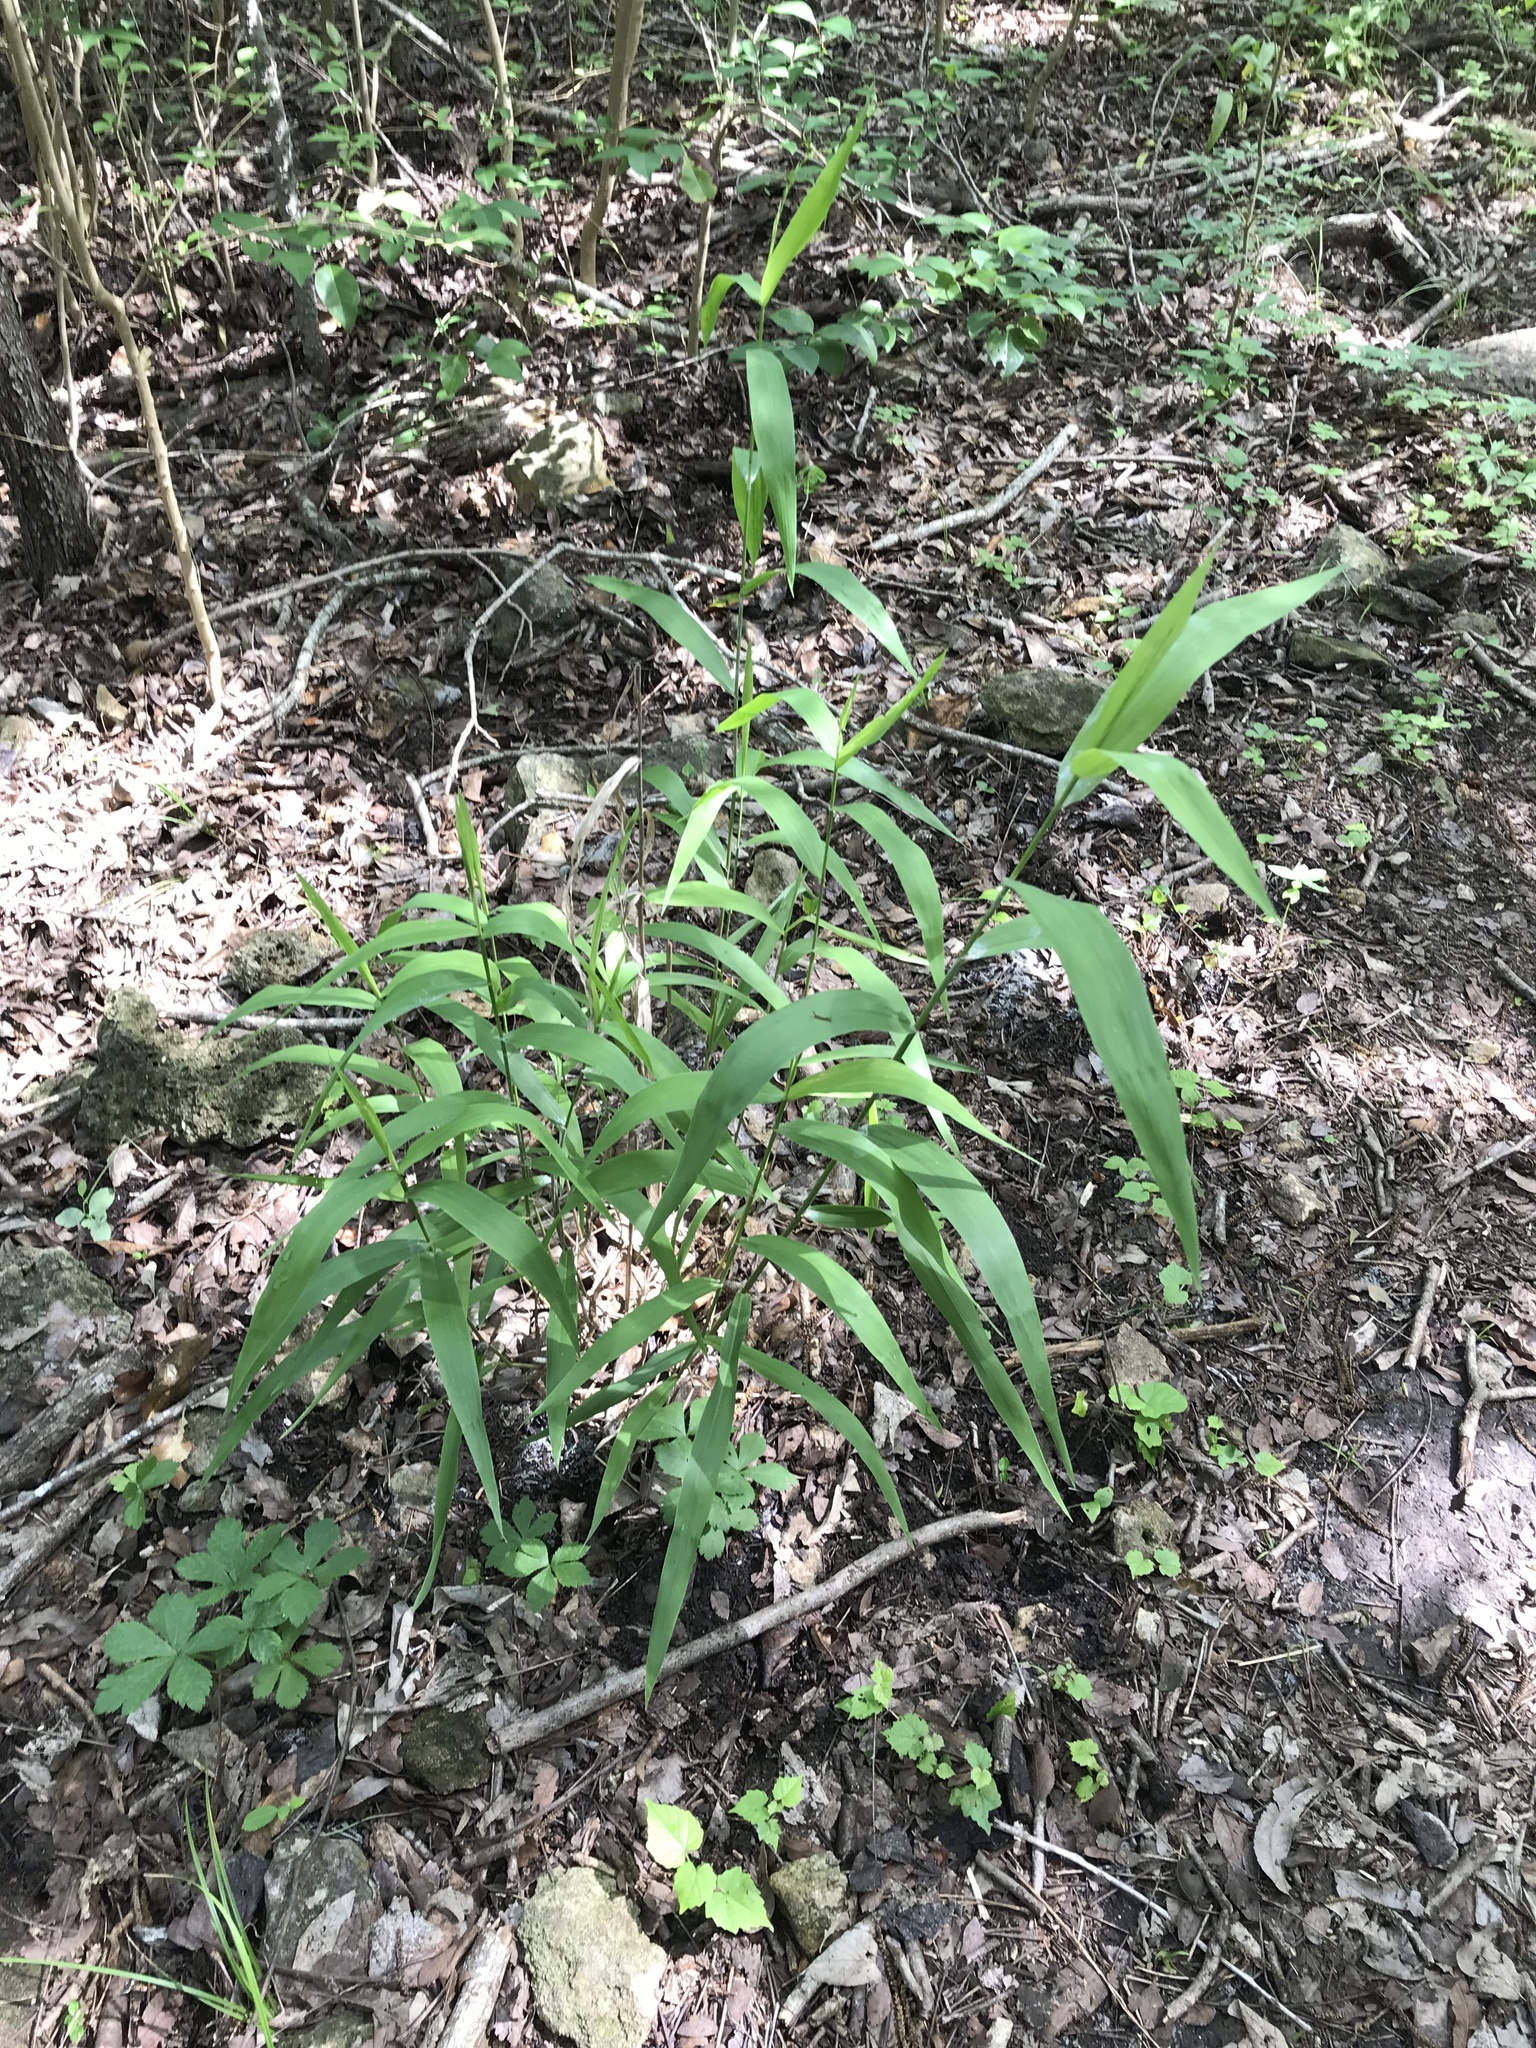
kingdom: Plantae
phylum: Tracheophyta
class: Liliopsida
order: Poales
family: Poaceae
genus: Chasmanthium
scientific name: Chasmanthium latifolium
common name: Broad-leaved chasmanthium
